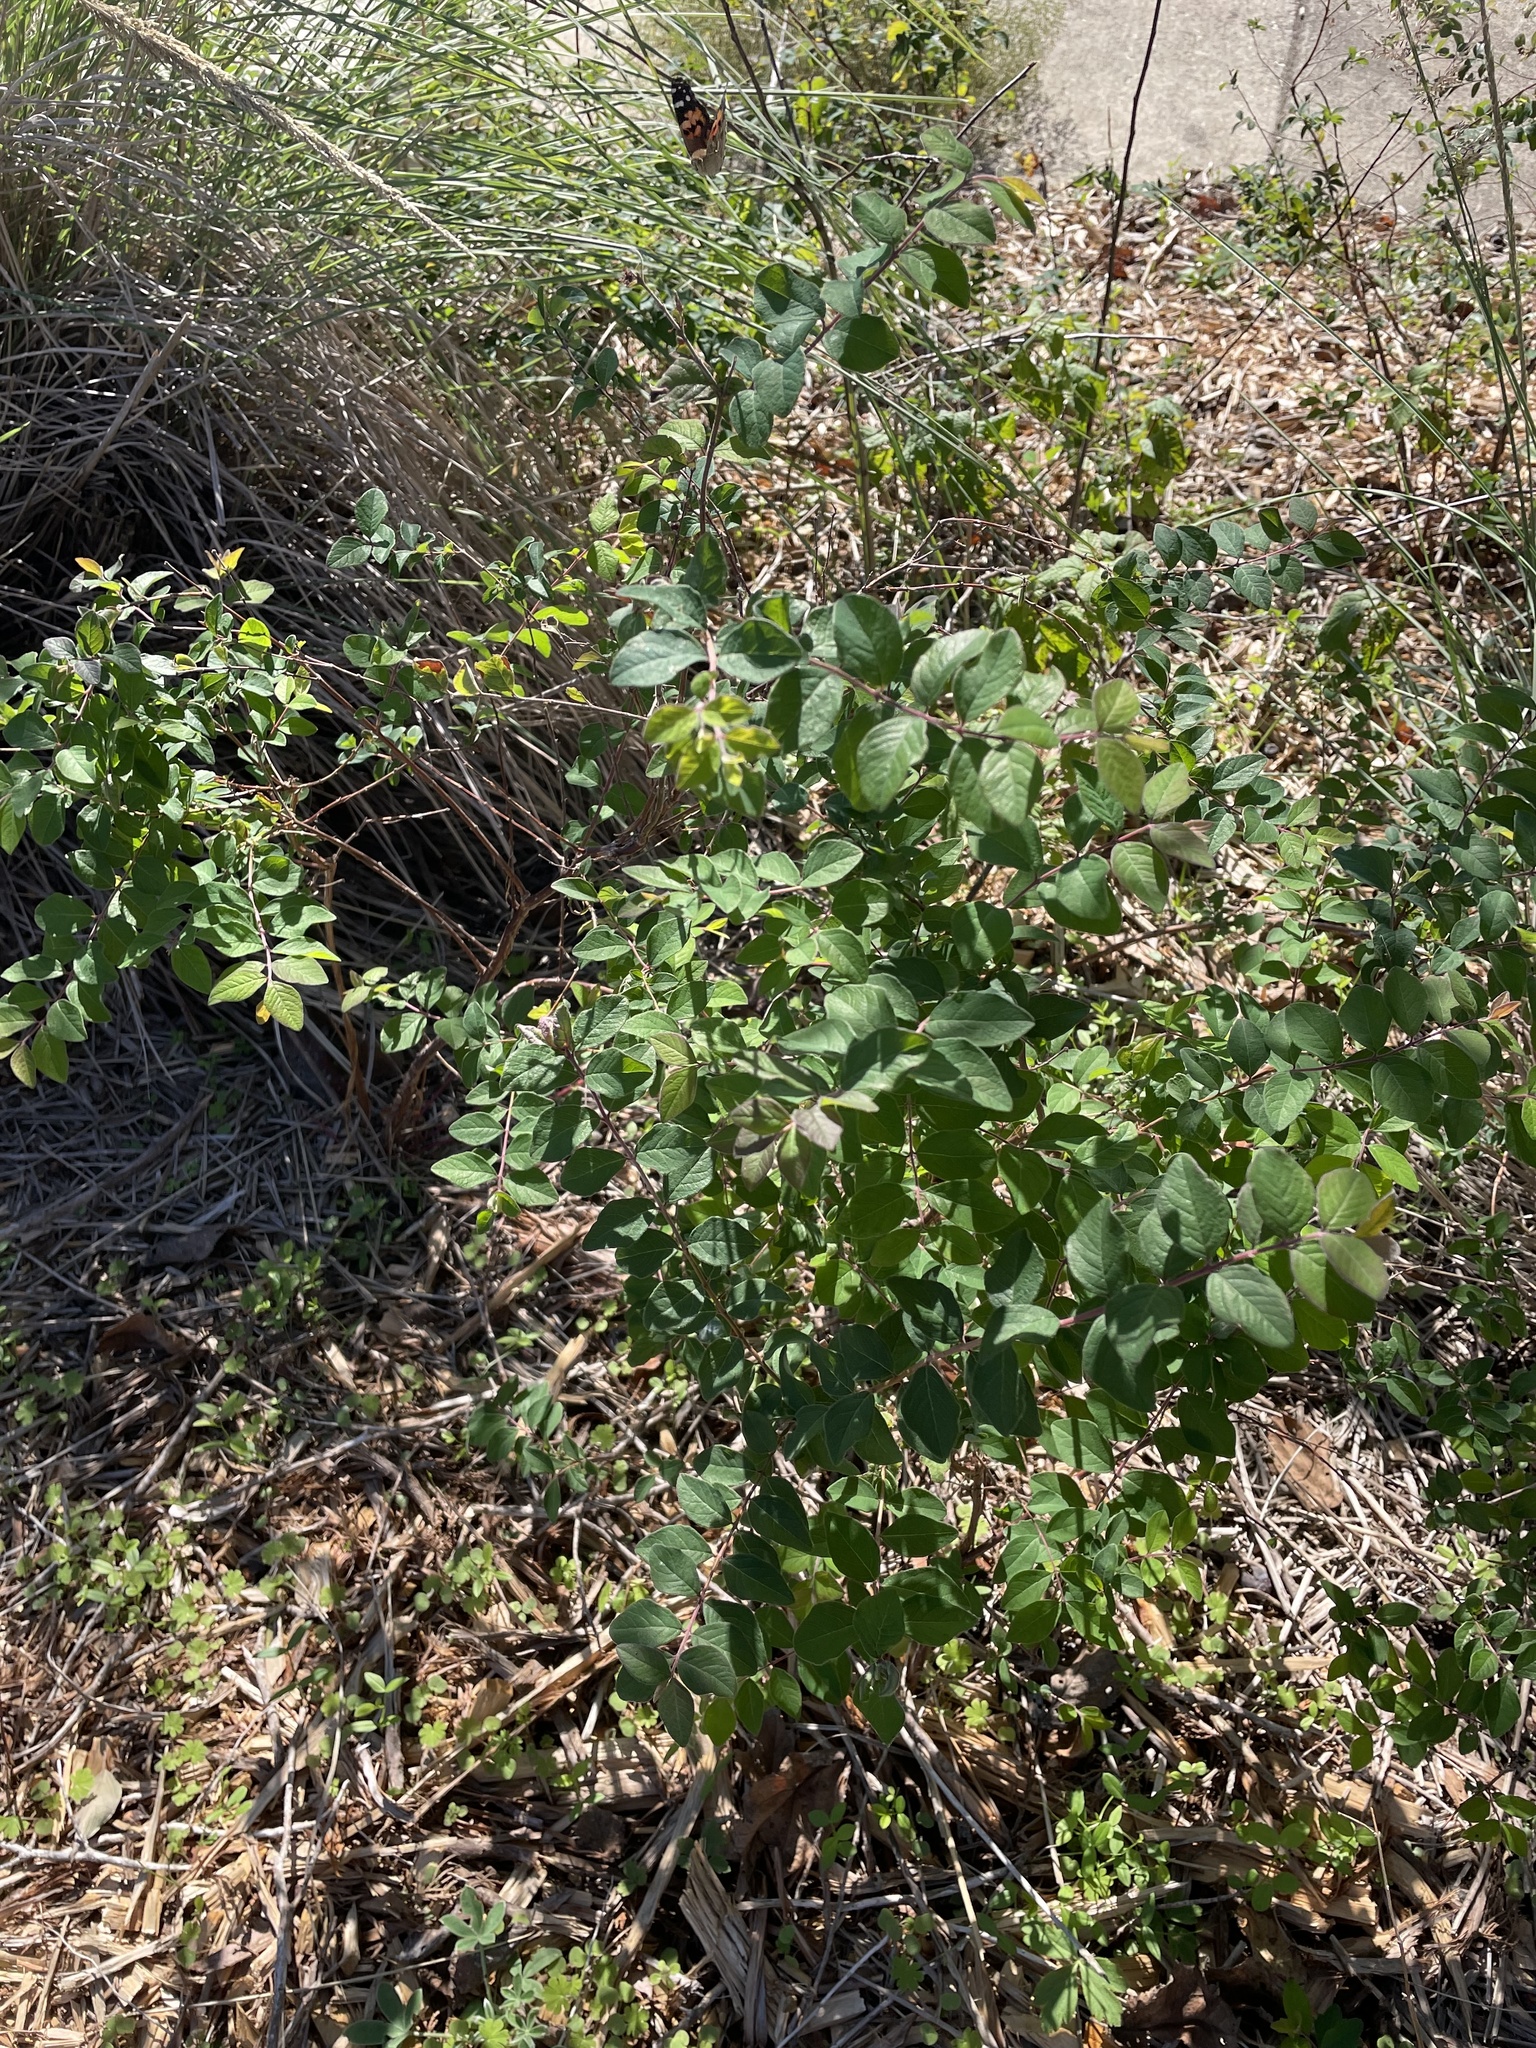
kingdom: Plantae
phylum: Tracheophyta
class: Magnoliopsida
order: Dipsacales
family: Caprifoliaceae
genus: Symphoricarpos
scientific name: Symphoricarpos orbiculatus
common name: Coralberry
